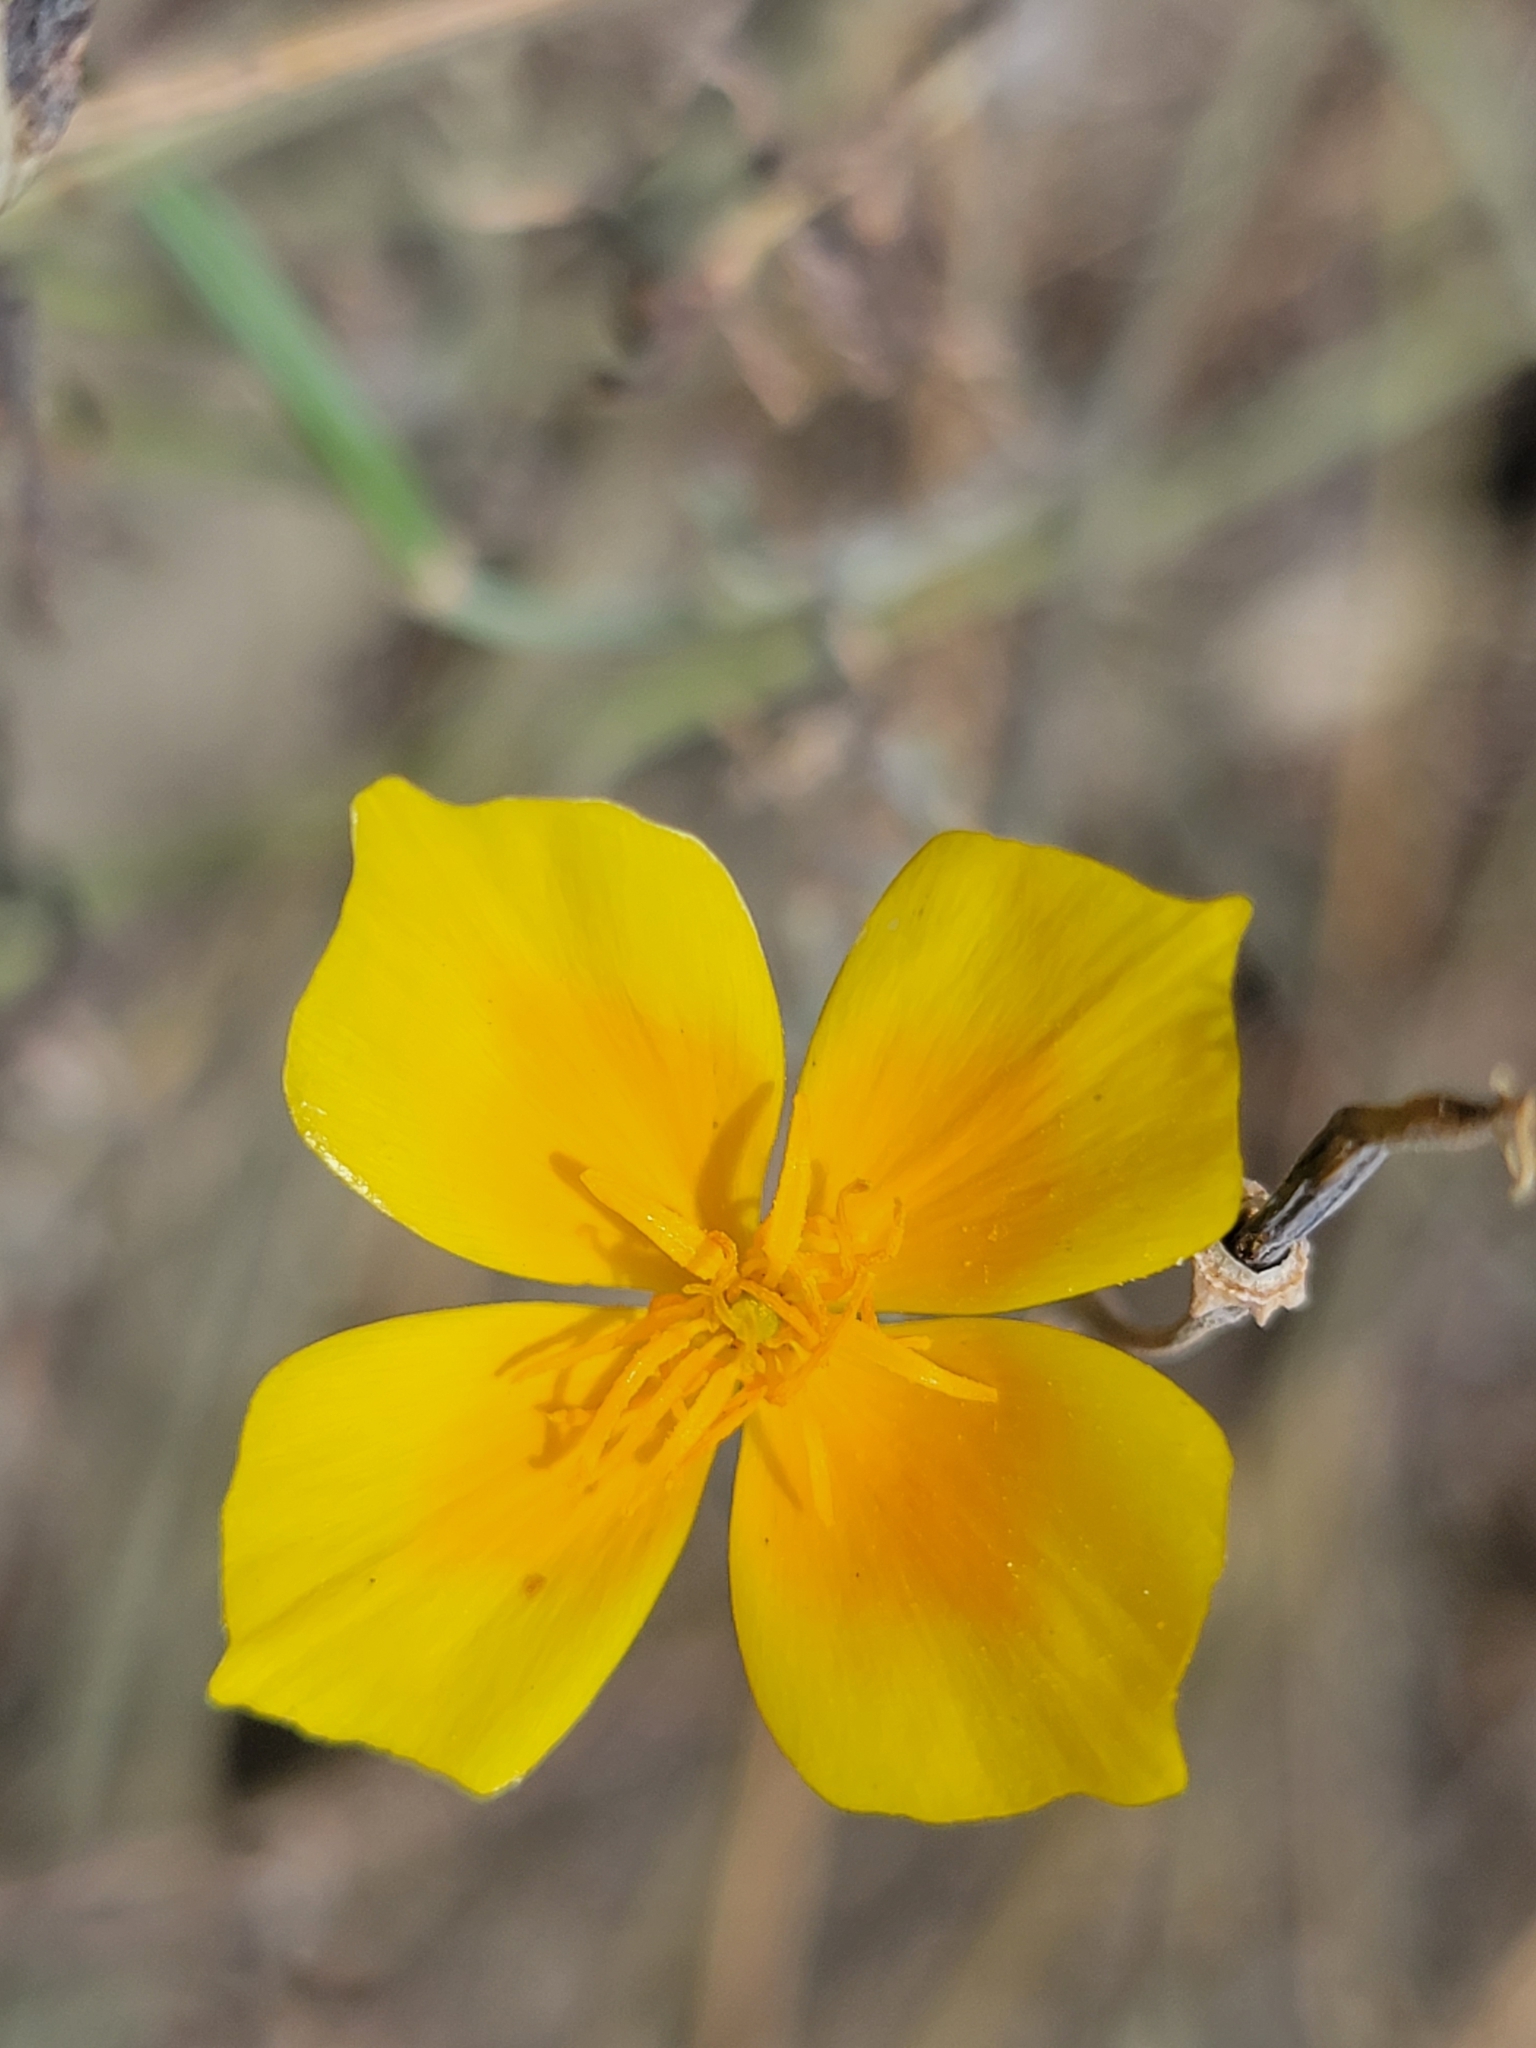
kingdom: Plantae
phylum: Tracheophyta
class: Magnoliopsida
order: Ranunculales
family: Papaveraceae
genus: Eschscholzia
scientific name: Eschscholzia californica
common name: California poppy
